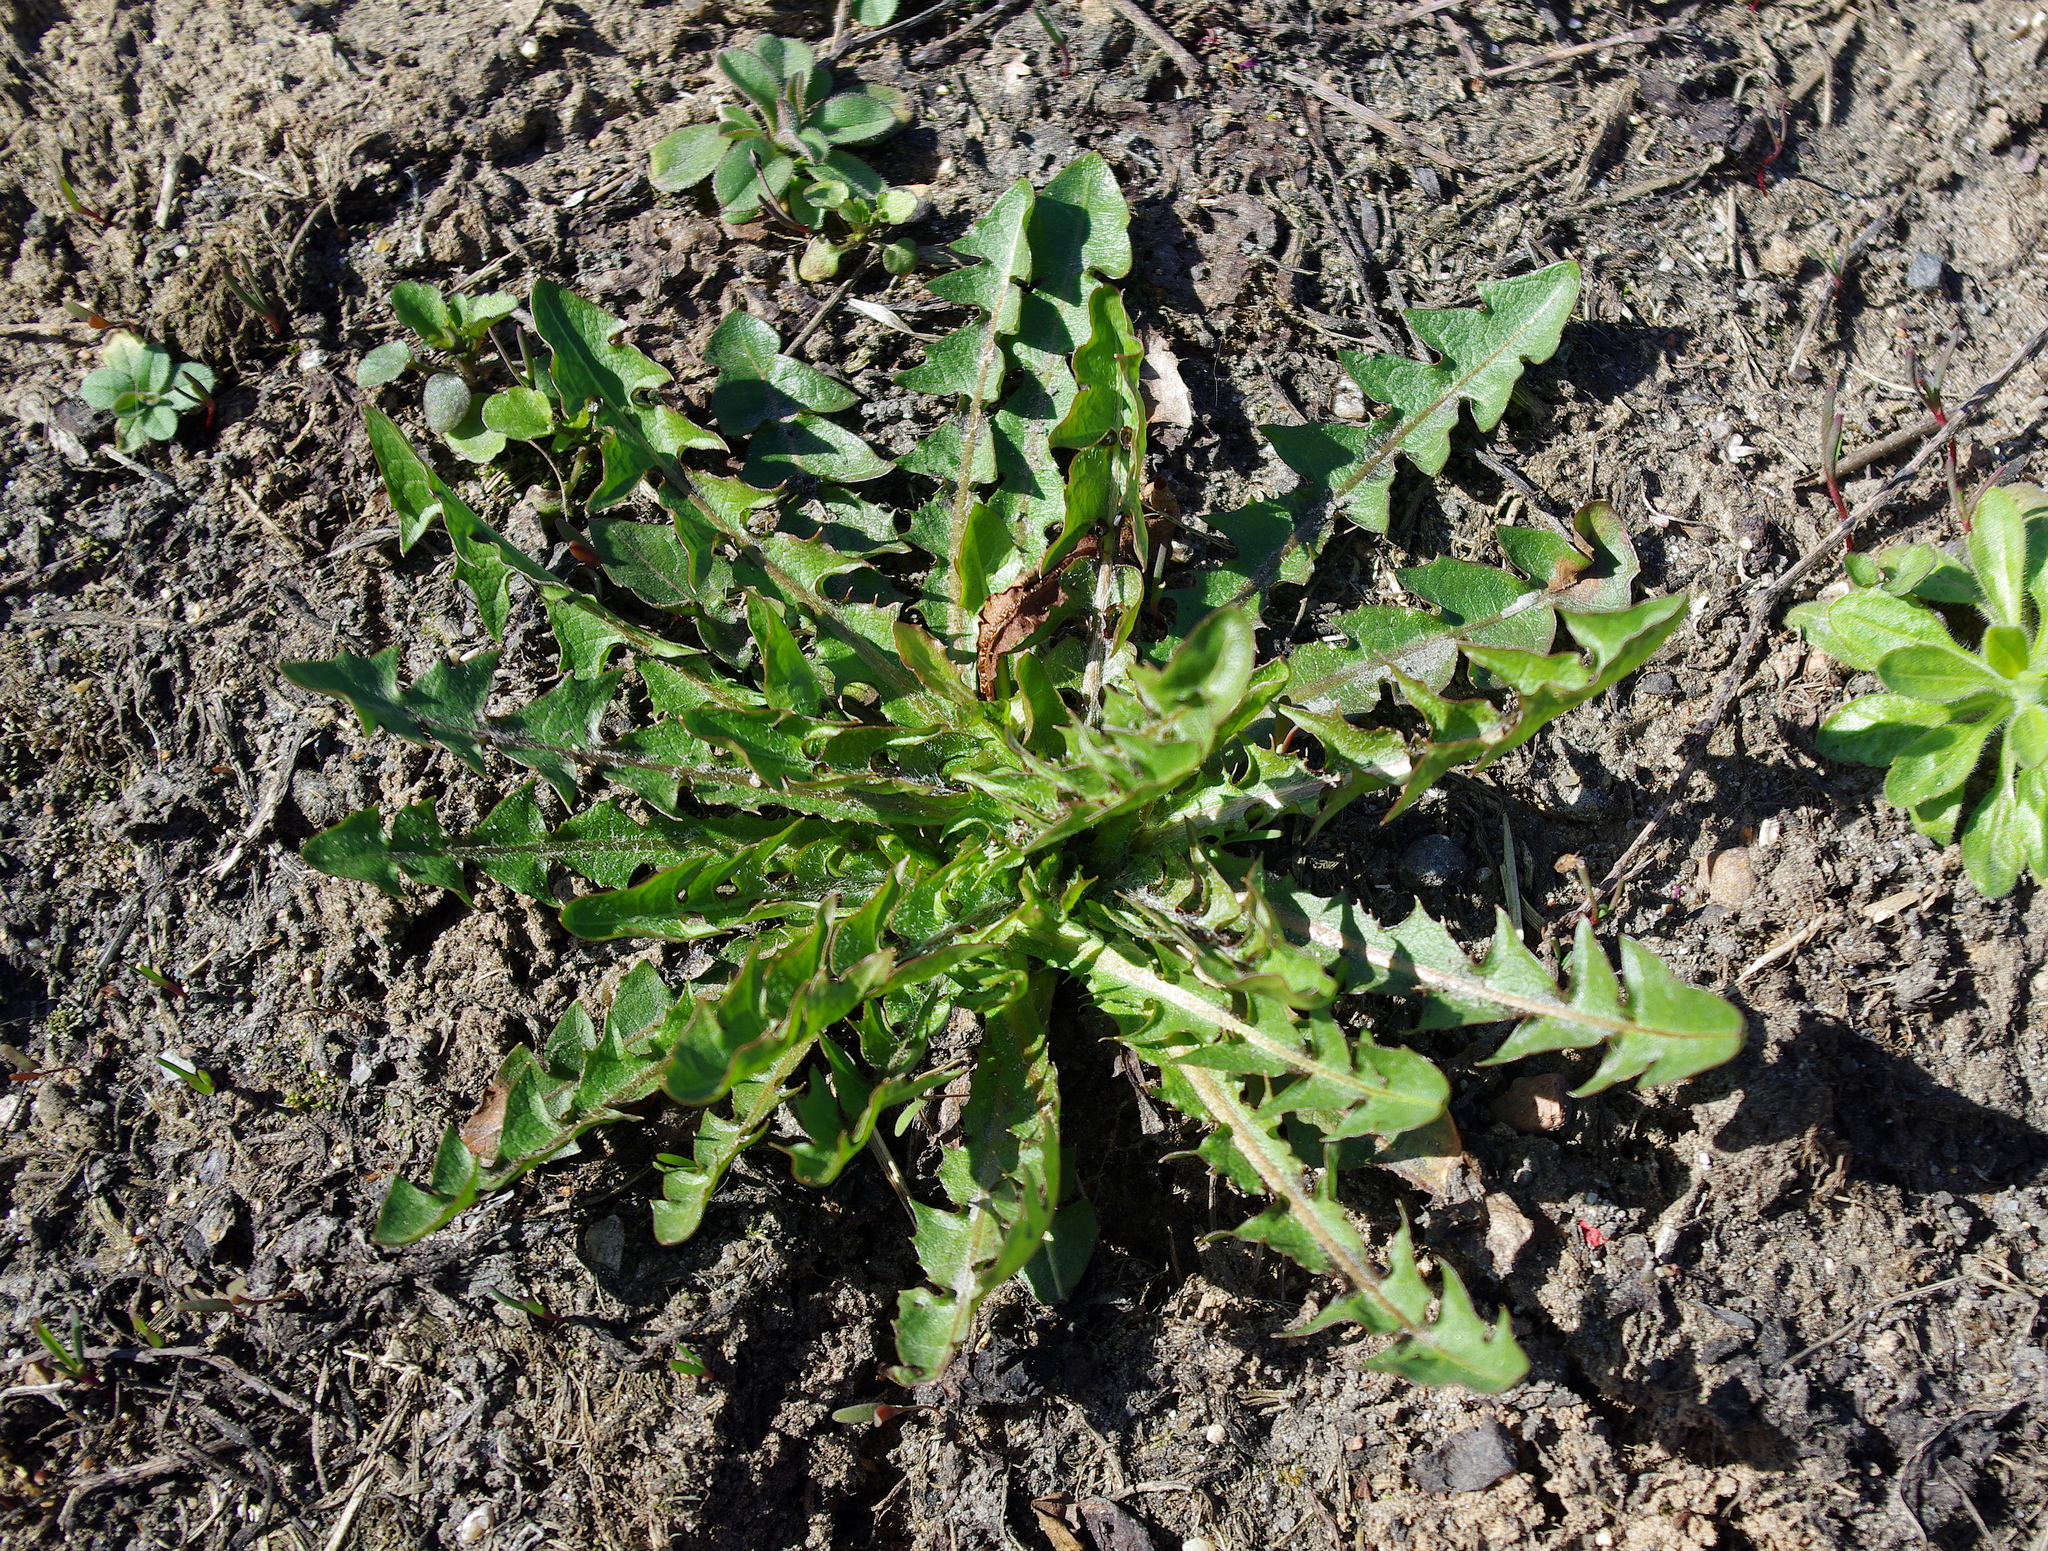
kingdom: Plantae
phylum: Tracheophyta
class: Magnoliopsida
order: Asterales
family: Asteraceae
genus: Taraxacum
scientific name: Taraxacum officinale
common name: Common dandelion
